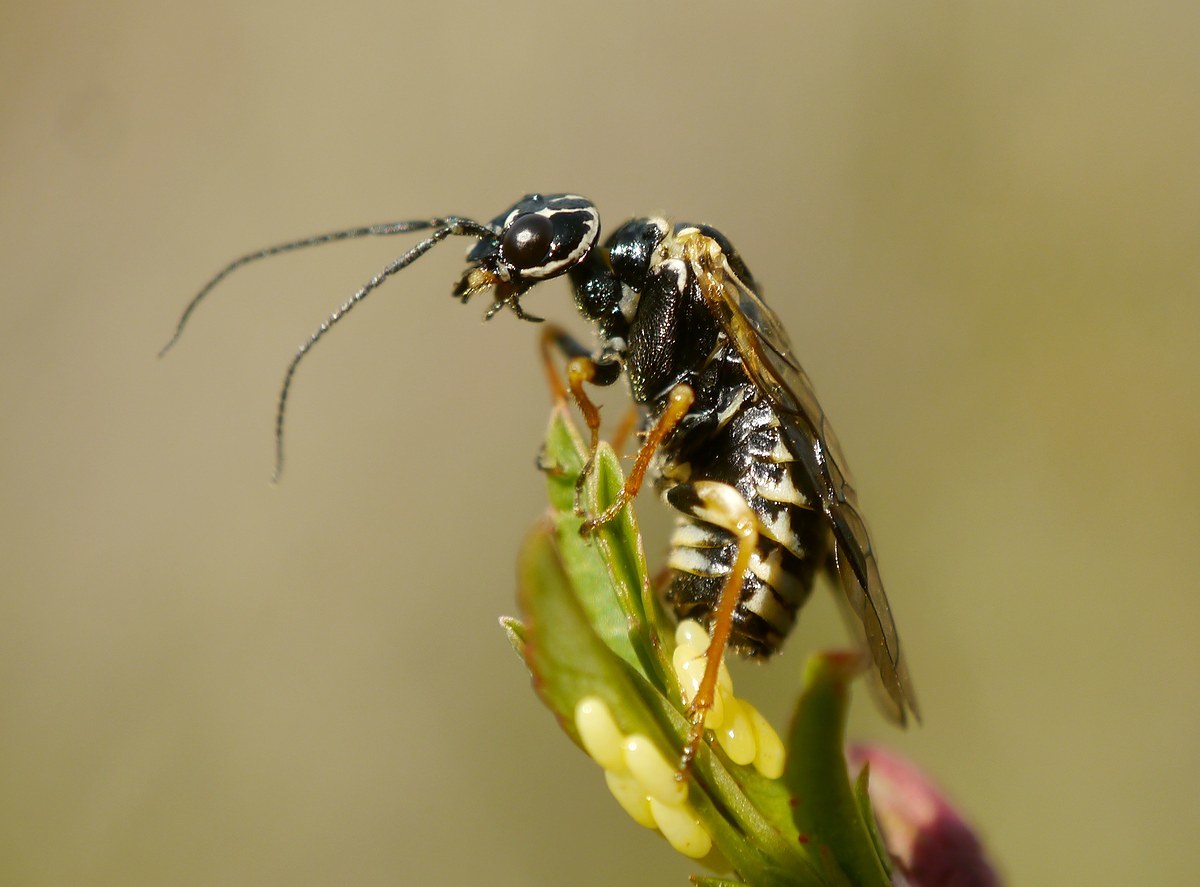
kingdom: Animalia
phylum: Arthropoda
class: Insecta
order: Hymenoptera
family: Pamphiliidae
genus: Neurotoma
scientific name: Neurotoma nemoralis
